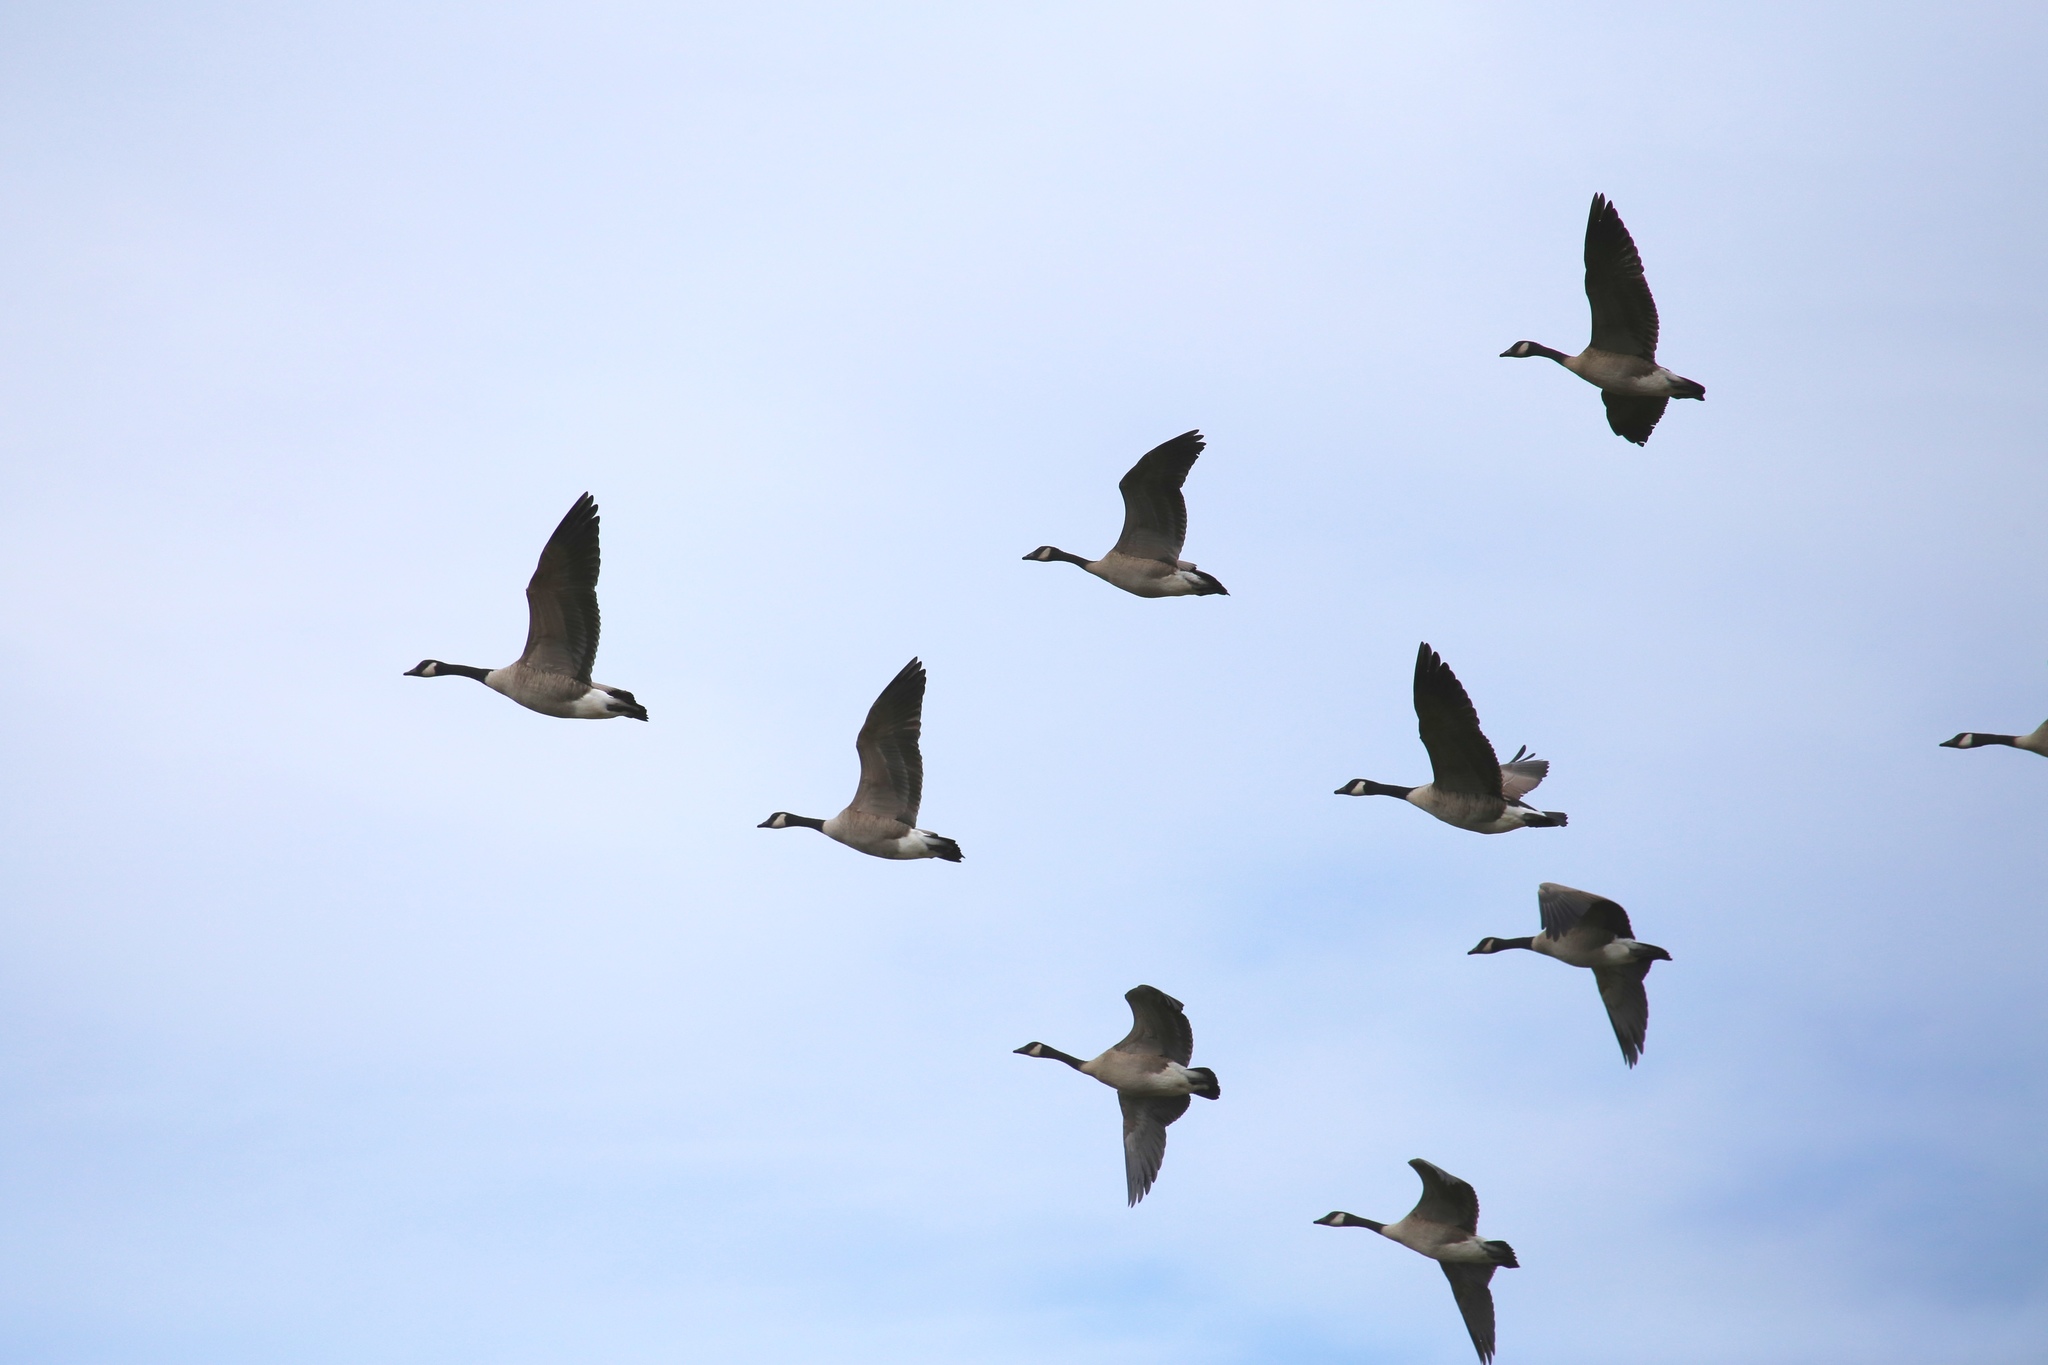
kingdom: Animalia
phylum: Chordata
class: Aves
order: Anseriformes
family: Anatidae
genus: Branta
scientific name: Branta canadensis
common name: Canada goose
